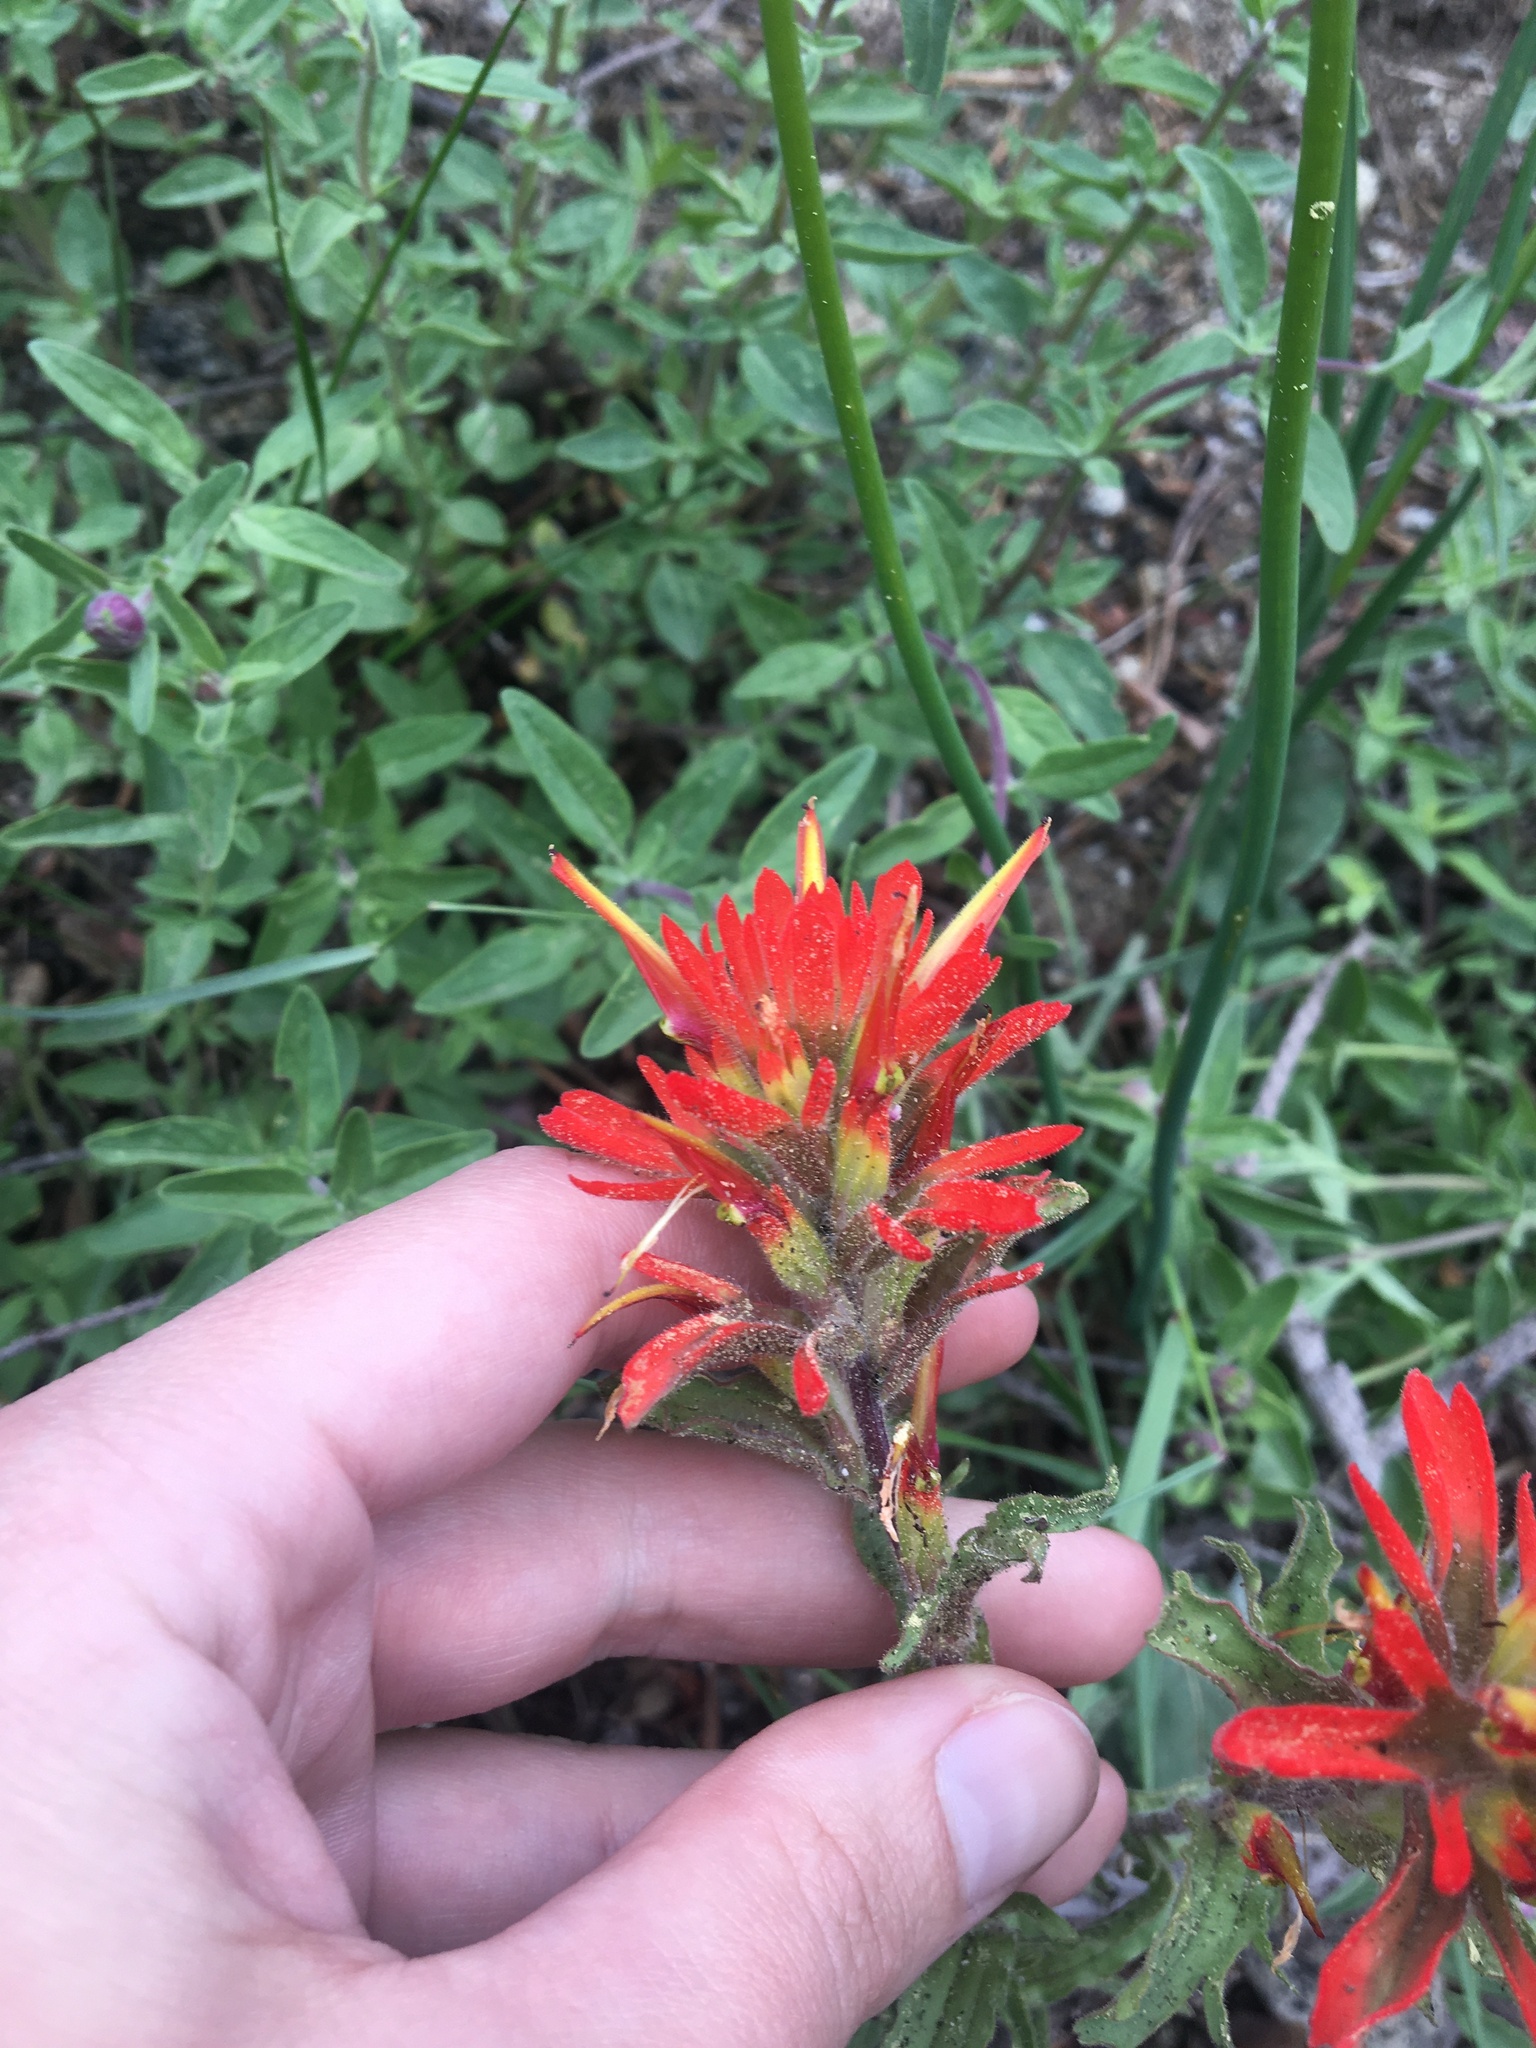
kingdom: Plantae
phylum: Tracheophyta
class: Magnoliopsida
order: Lamiales
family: Orobanchaceae
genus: Castilleja
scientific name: Castilleja applegatei
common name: Wavy-leaf paintbrush
